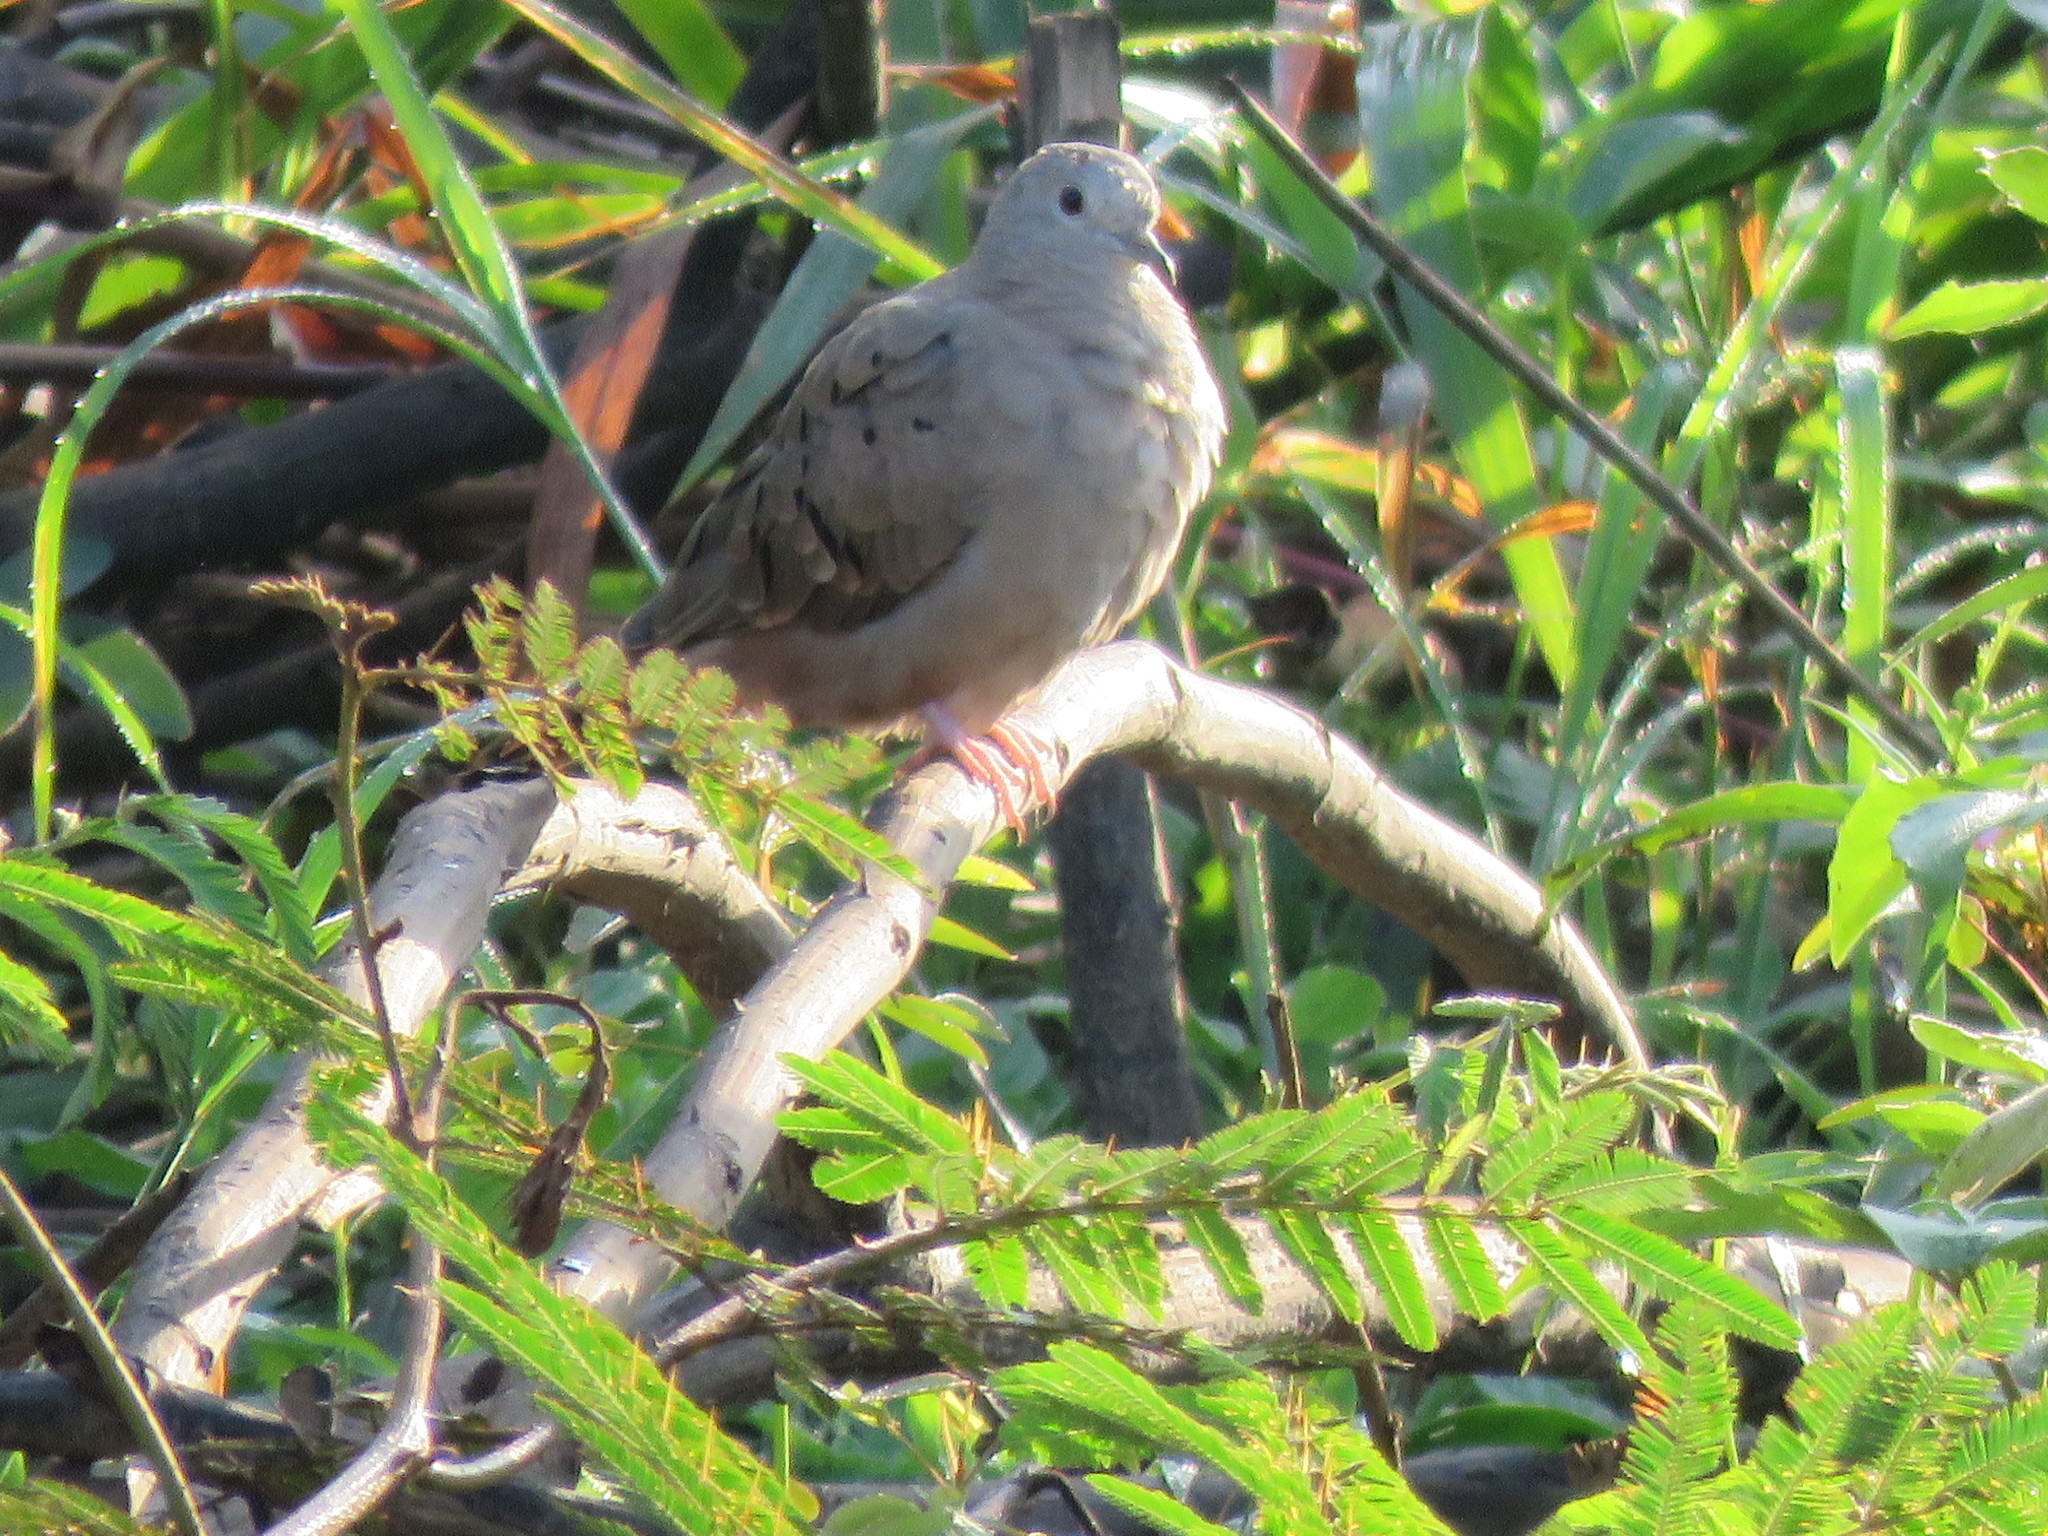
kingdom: Animalia
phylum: Chordata
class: Aves
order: Columbiformes
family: Columbidae
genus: Columbina
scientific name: Columbina talpacoti
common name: Ruddy ground dove
